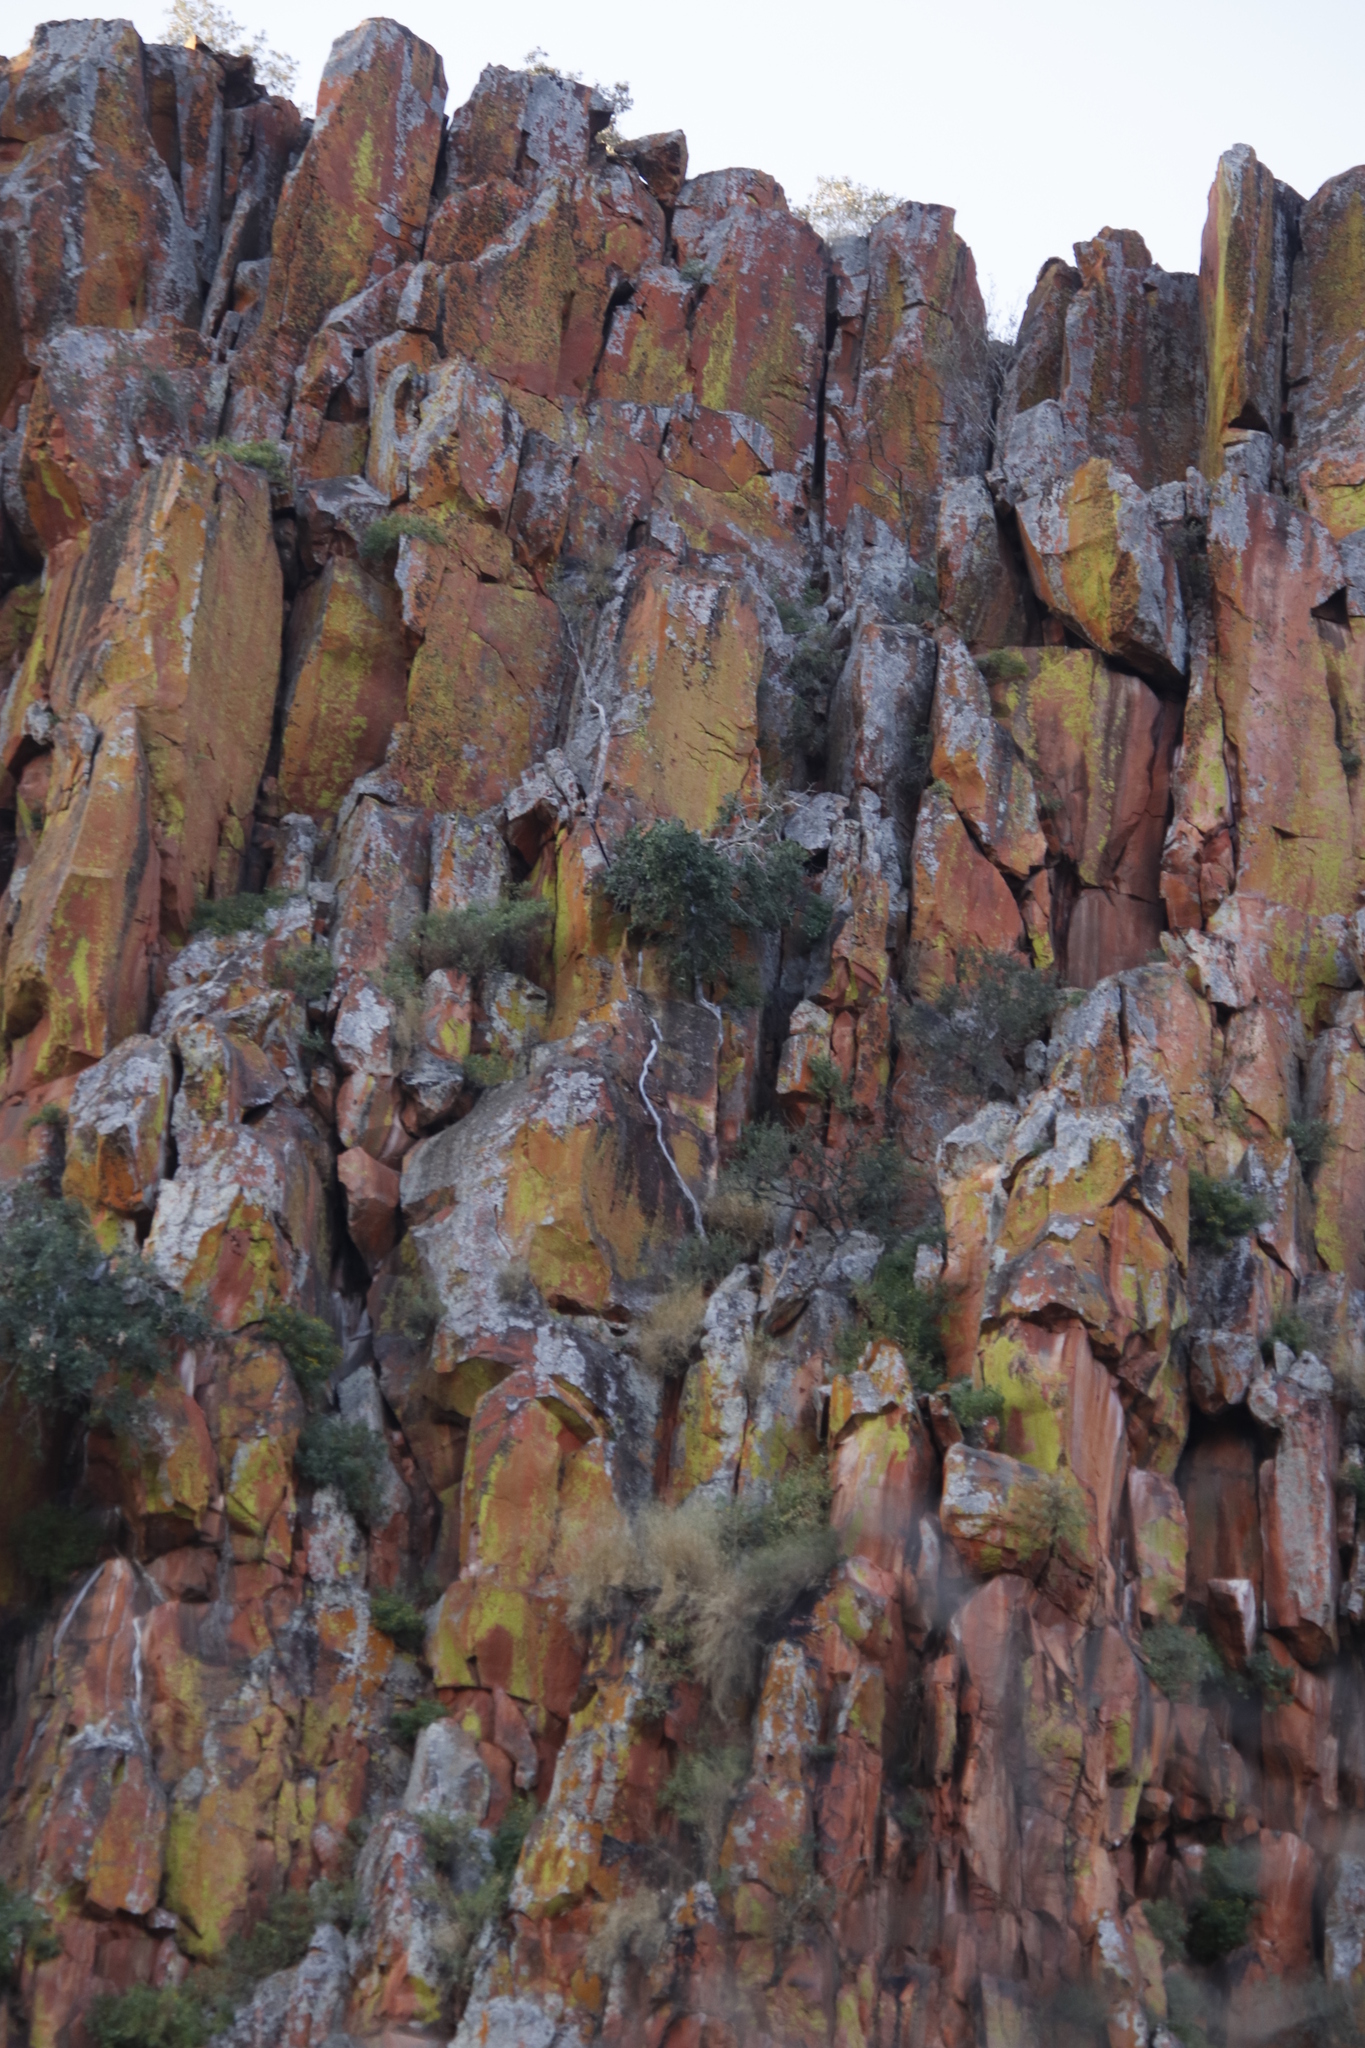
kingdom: Plantae
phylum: Tracheophyta
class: Magnoliopsida
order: Rosales
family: Moraceae
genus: Ficus
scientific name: Ficus ilicina
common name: Laurel rock fig
